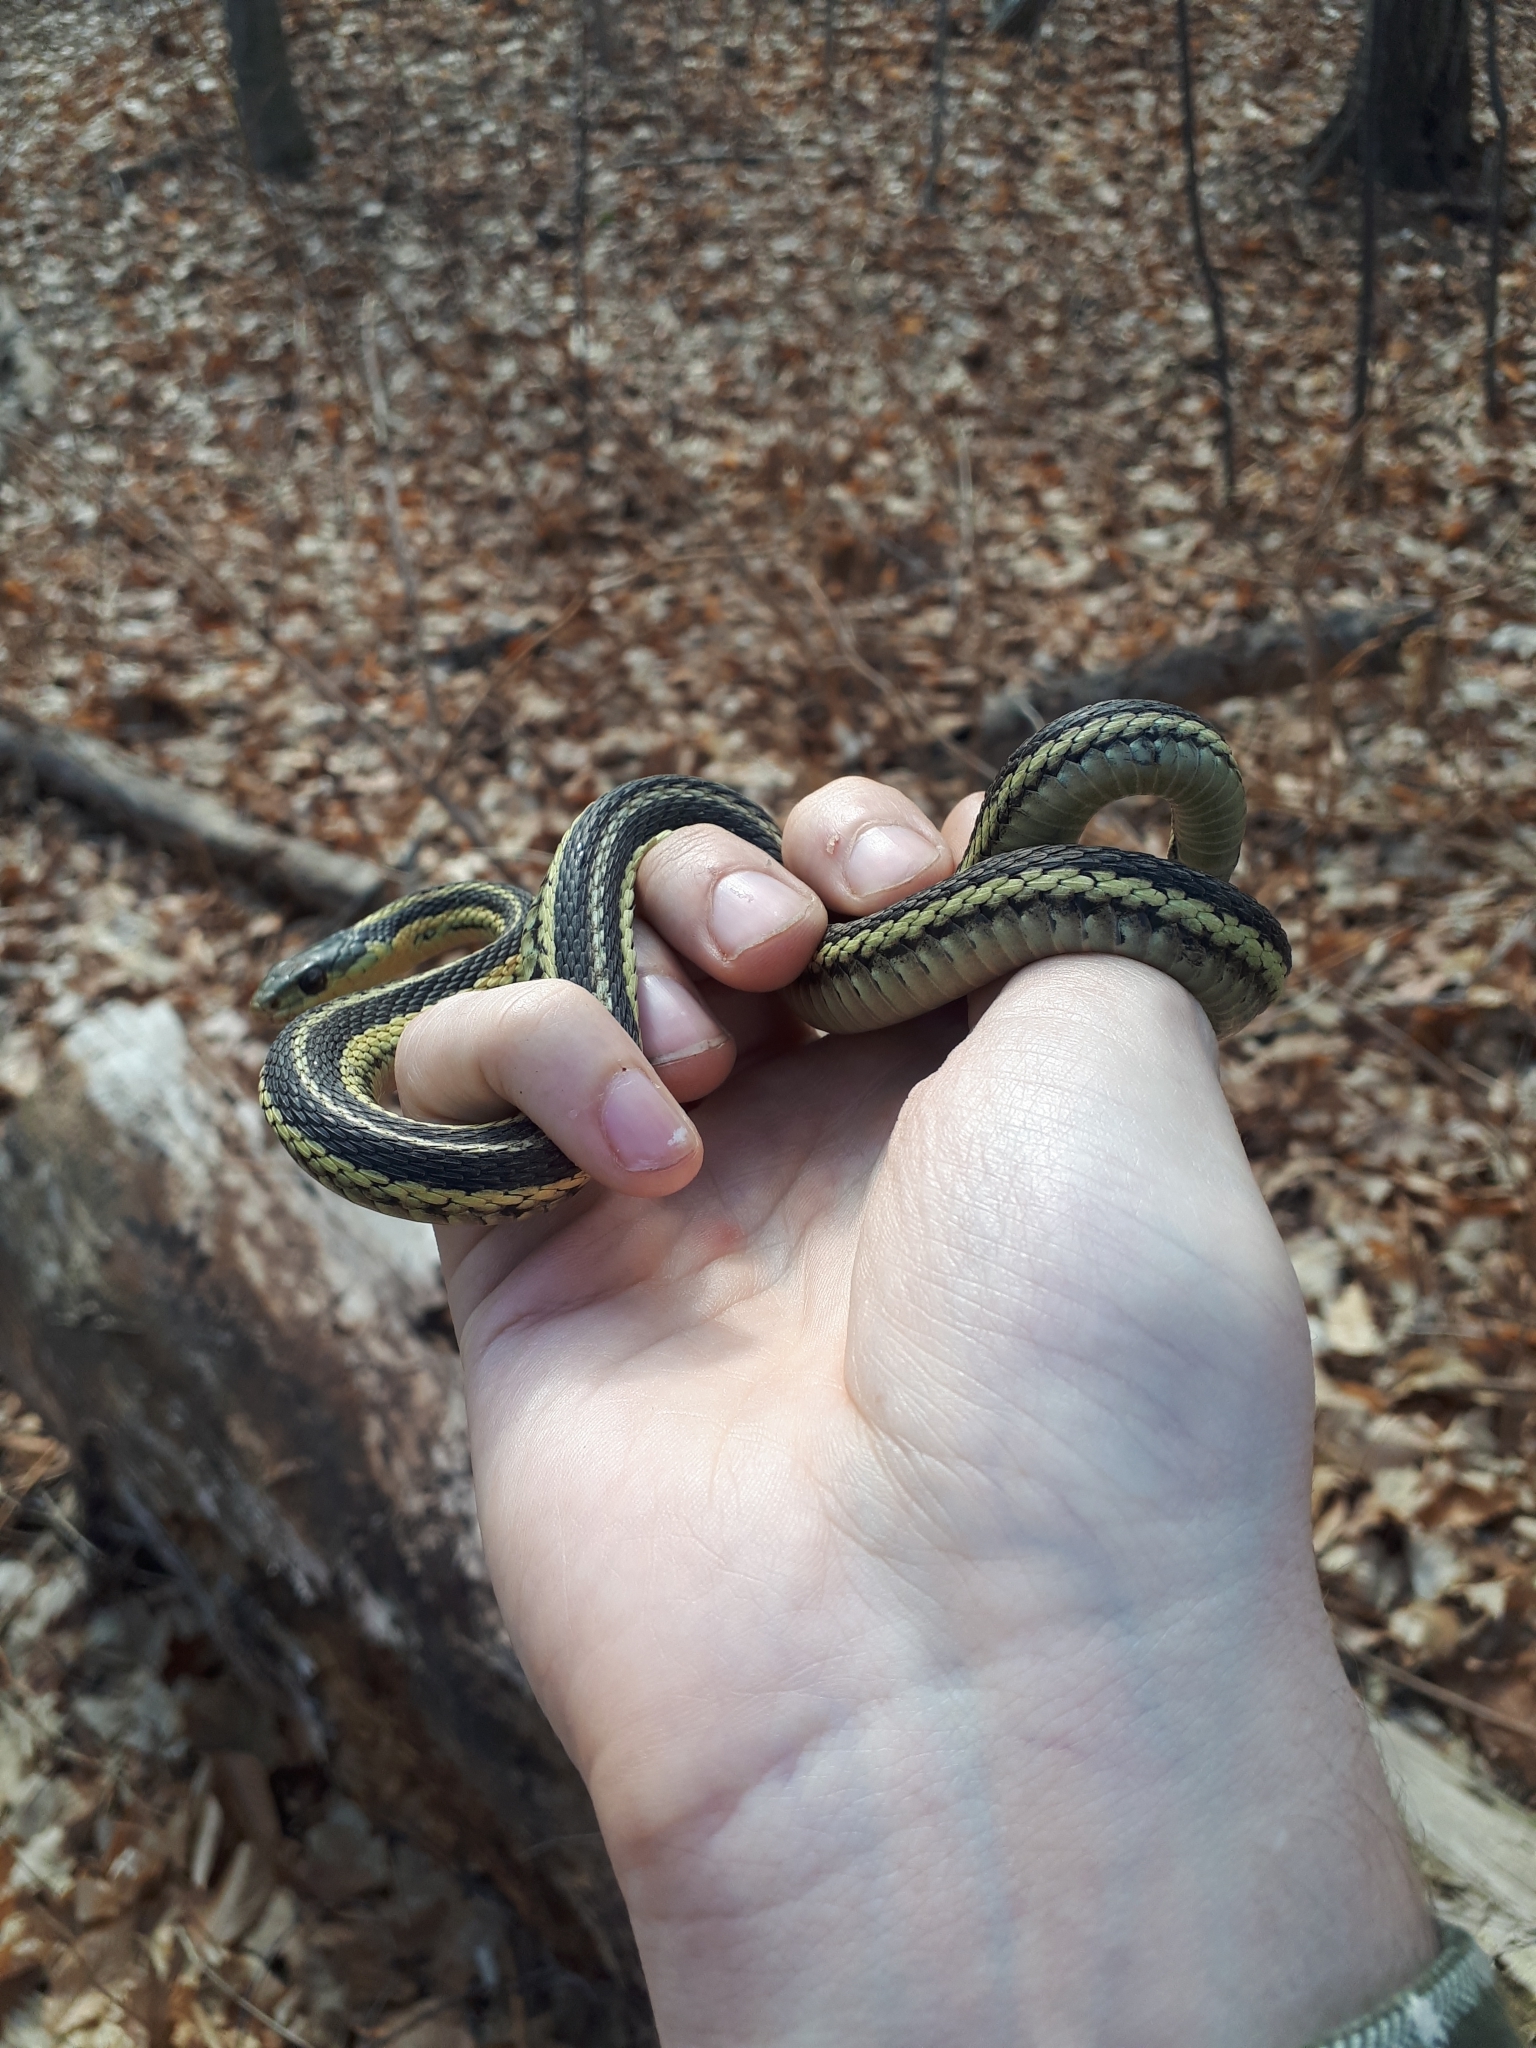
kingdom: Animalia
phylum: Chordata
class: Squamata
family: Colubridae
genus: Thamnophis
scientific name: Thamnophis sirtalis
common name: Common garter snake
